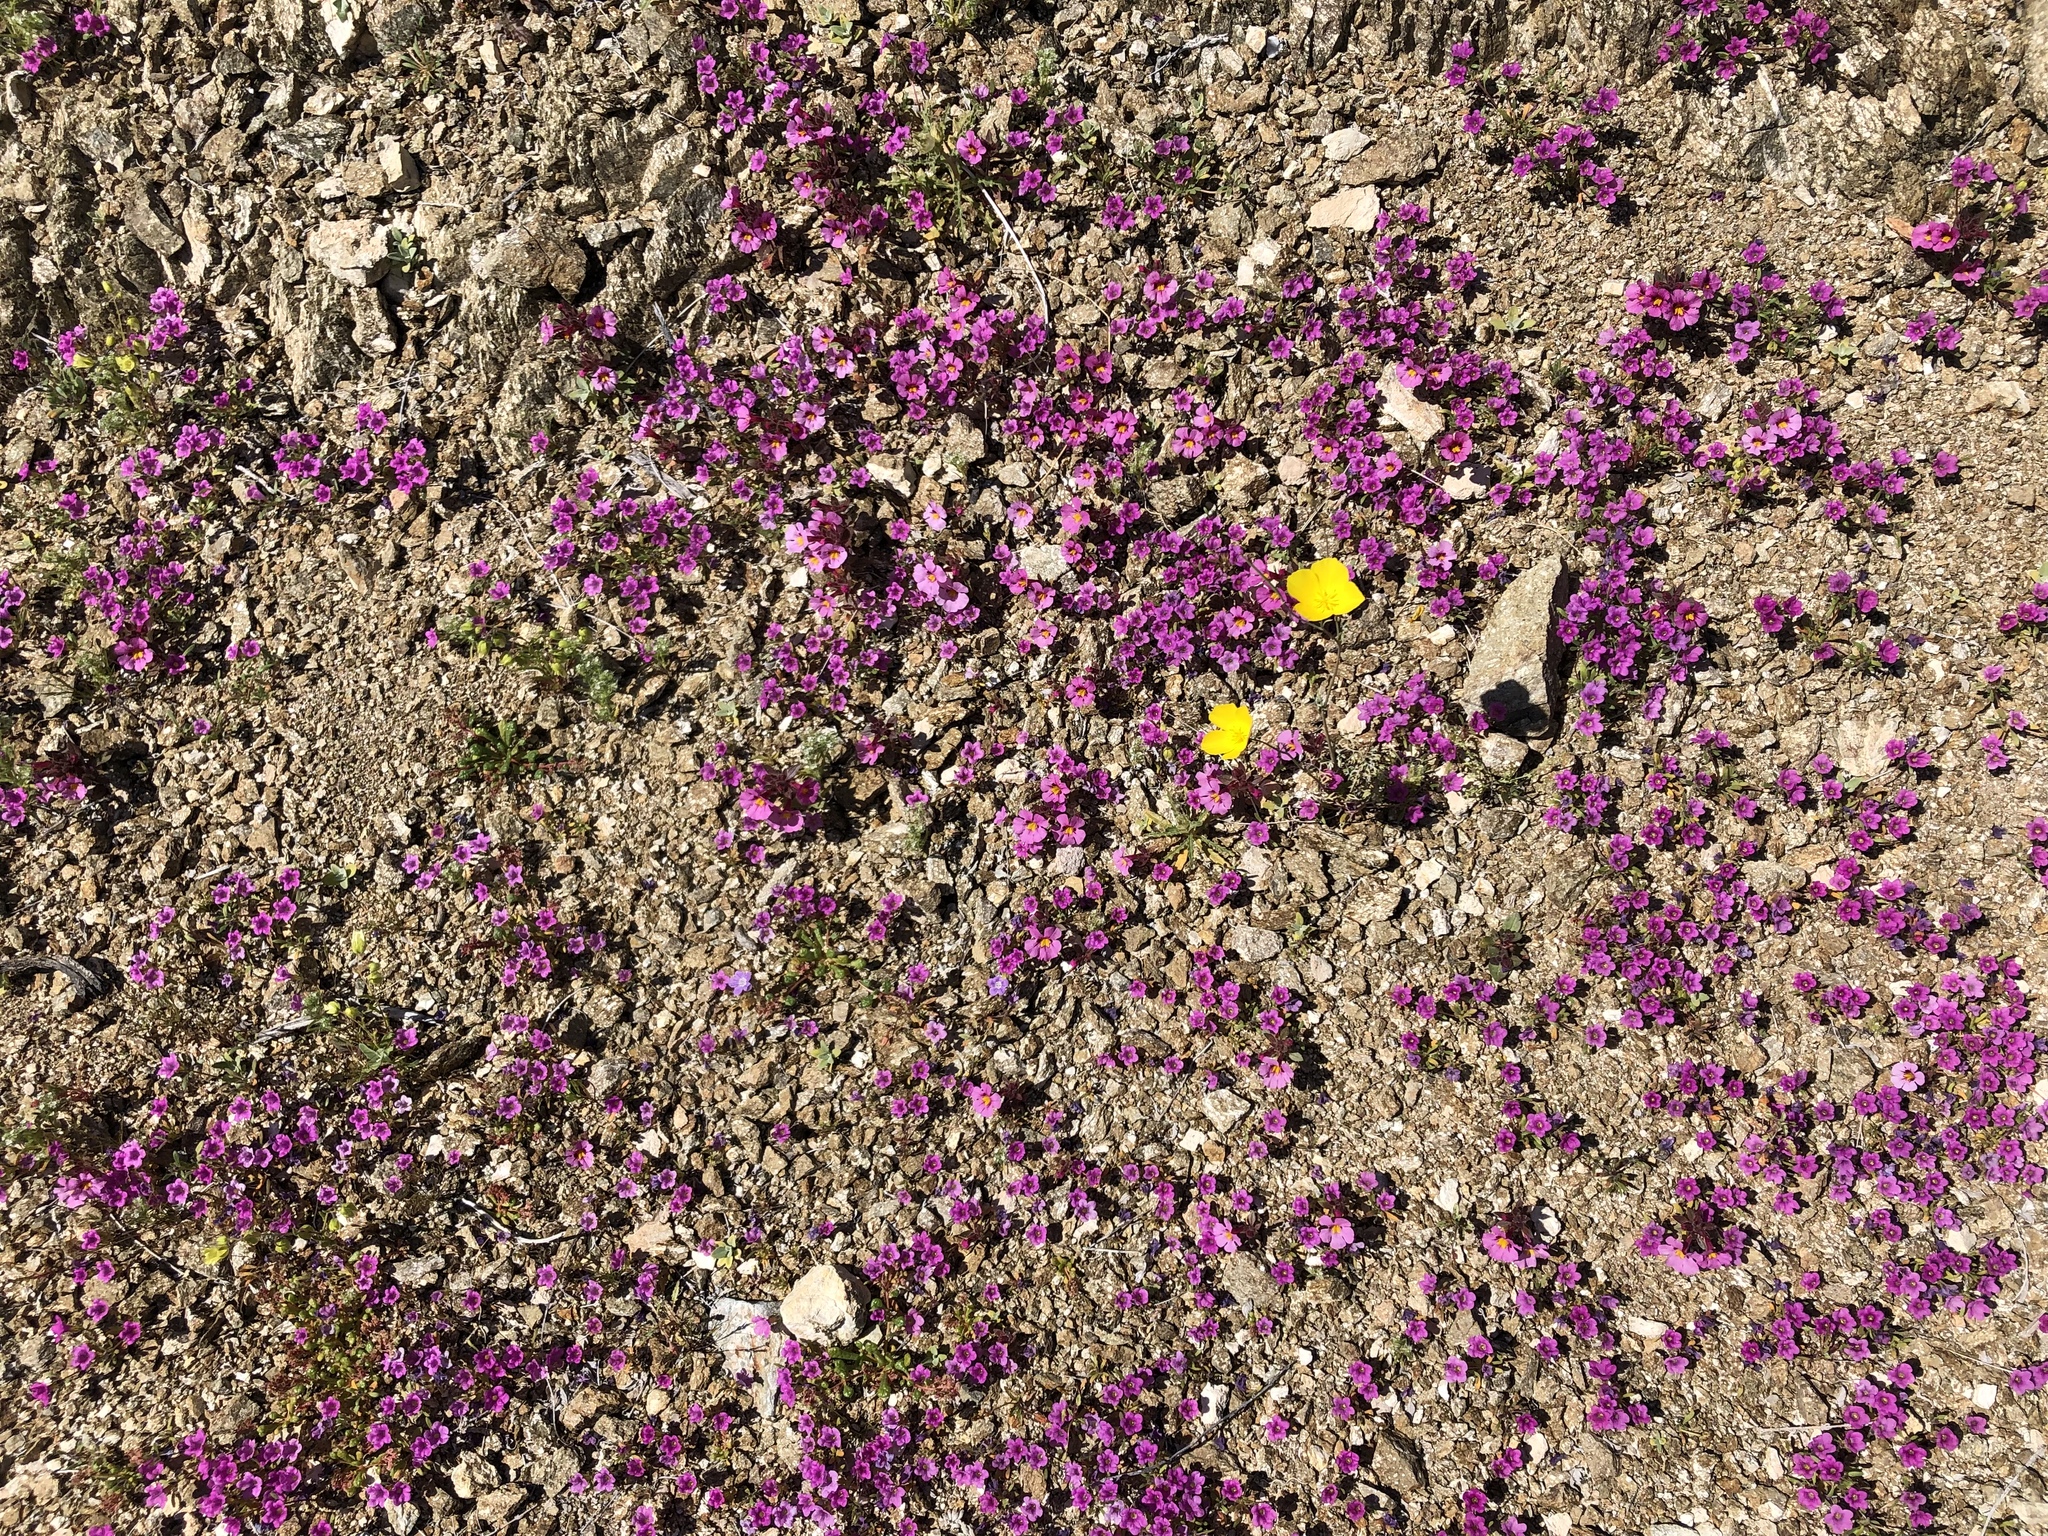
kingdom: Plantae
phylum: Tracheophyta
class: Magnoliopsida
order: Boraginales
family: Namaceae
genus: Nama
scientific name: Nama demissa
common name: Leafy nama
